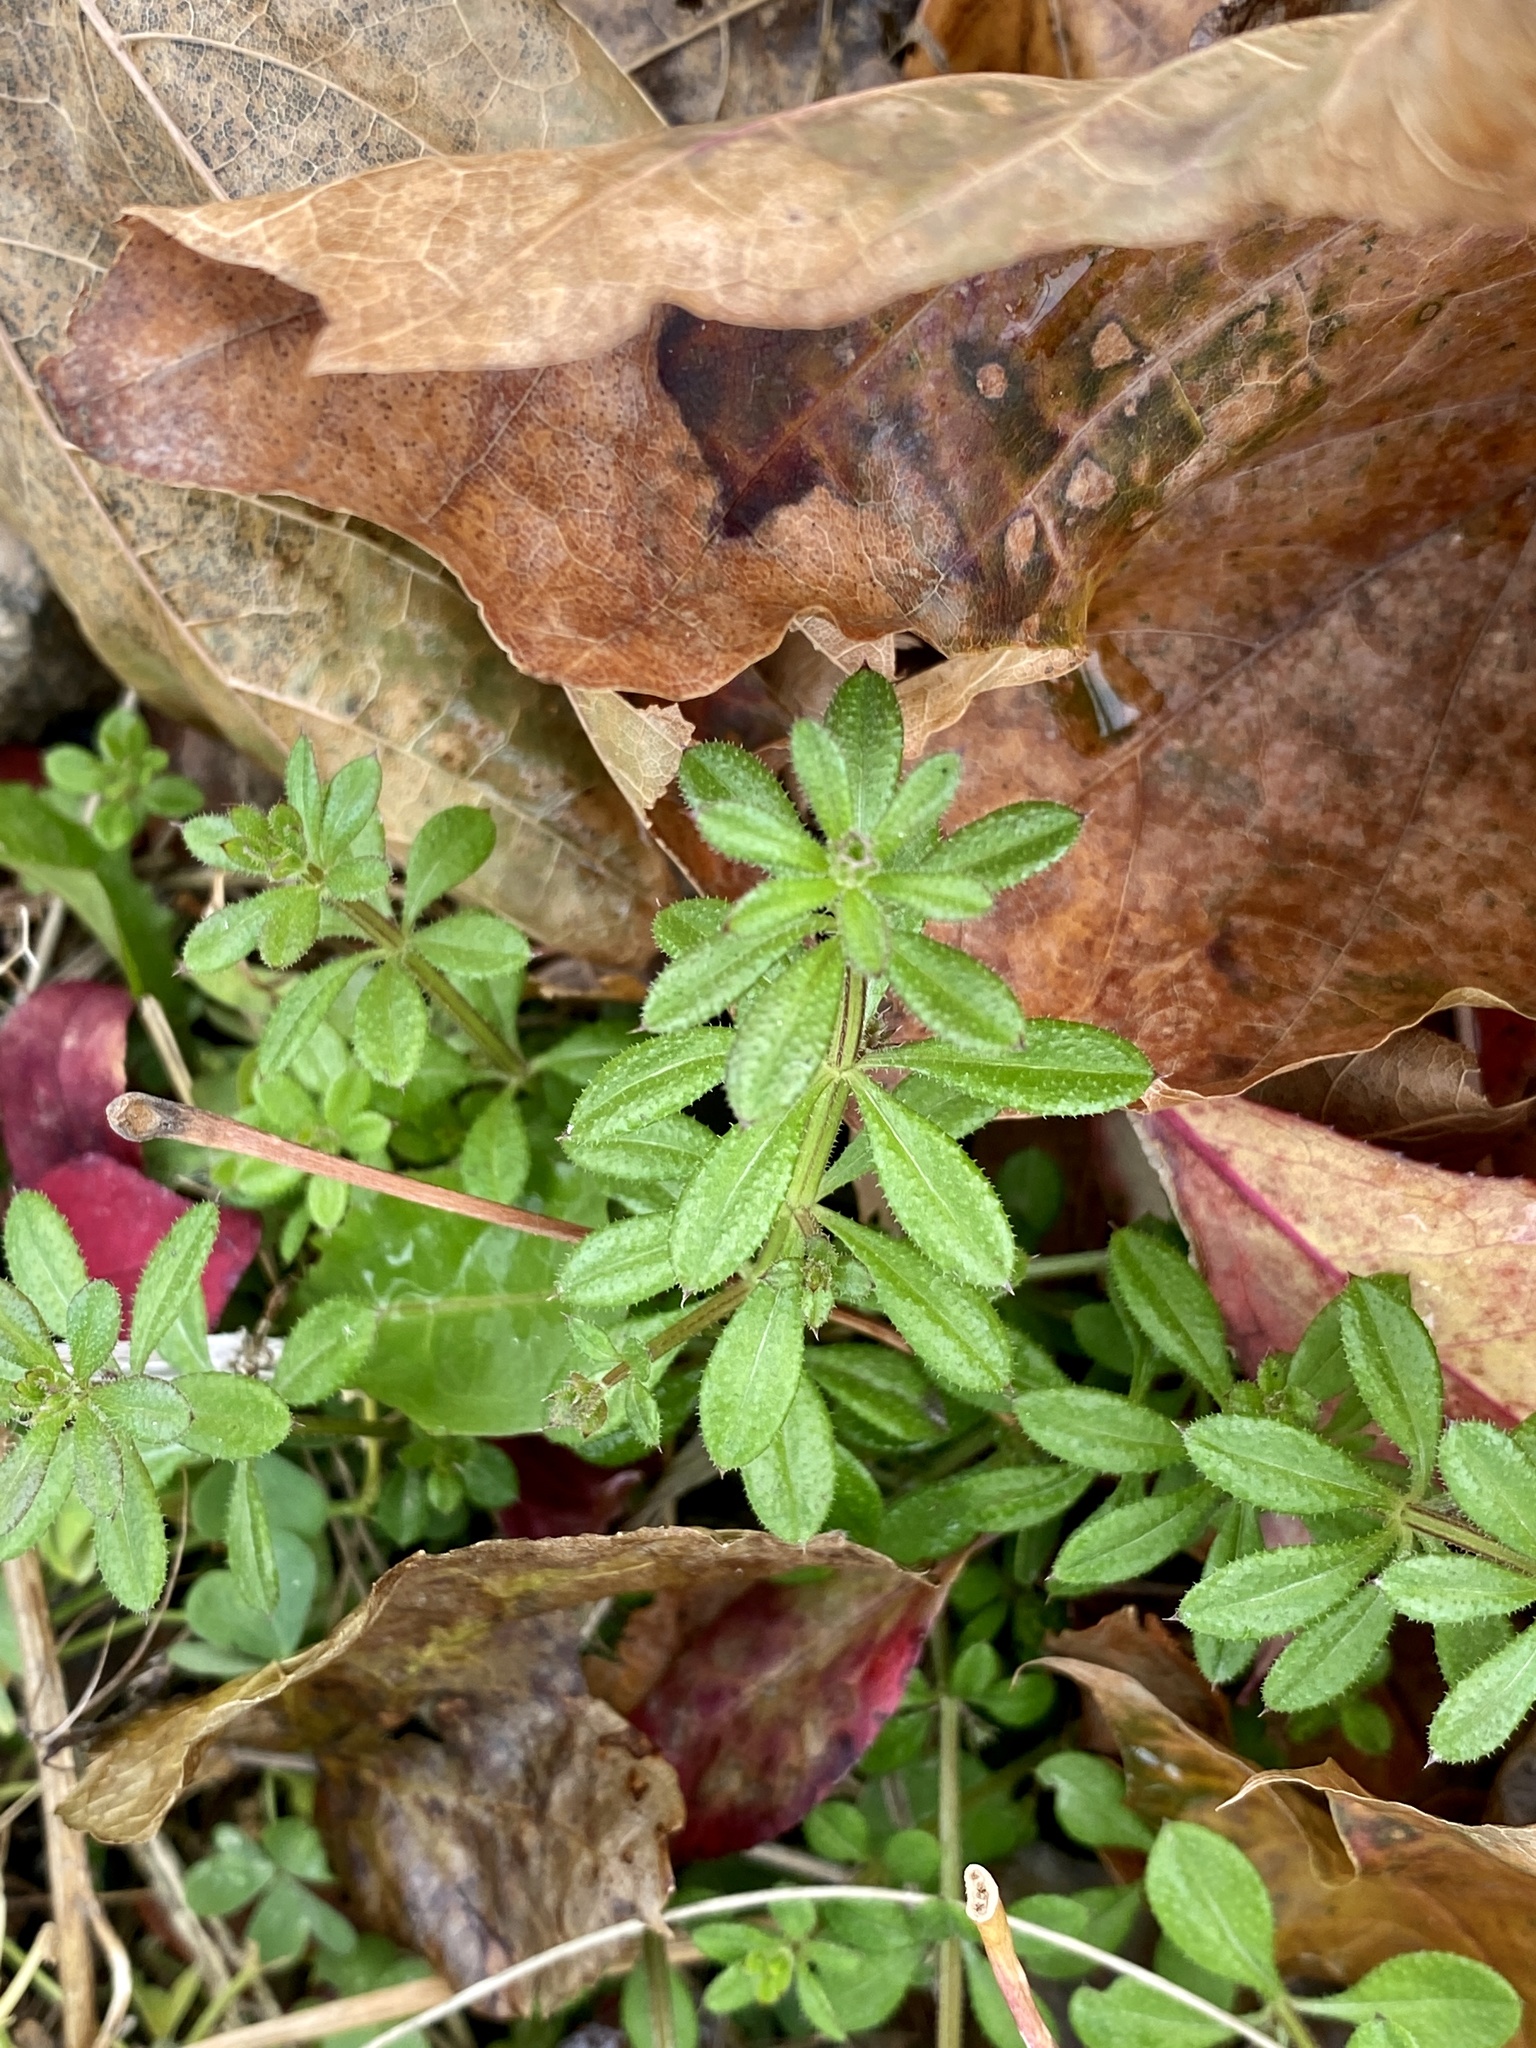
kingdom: Plantae
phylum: Tracheophyta
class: Magnoliopsida
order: Gentianales
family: Rubiaceae
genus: Galium
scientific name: Galium aparine
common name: Cleavers
